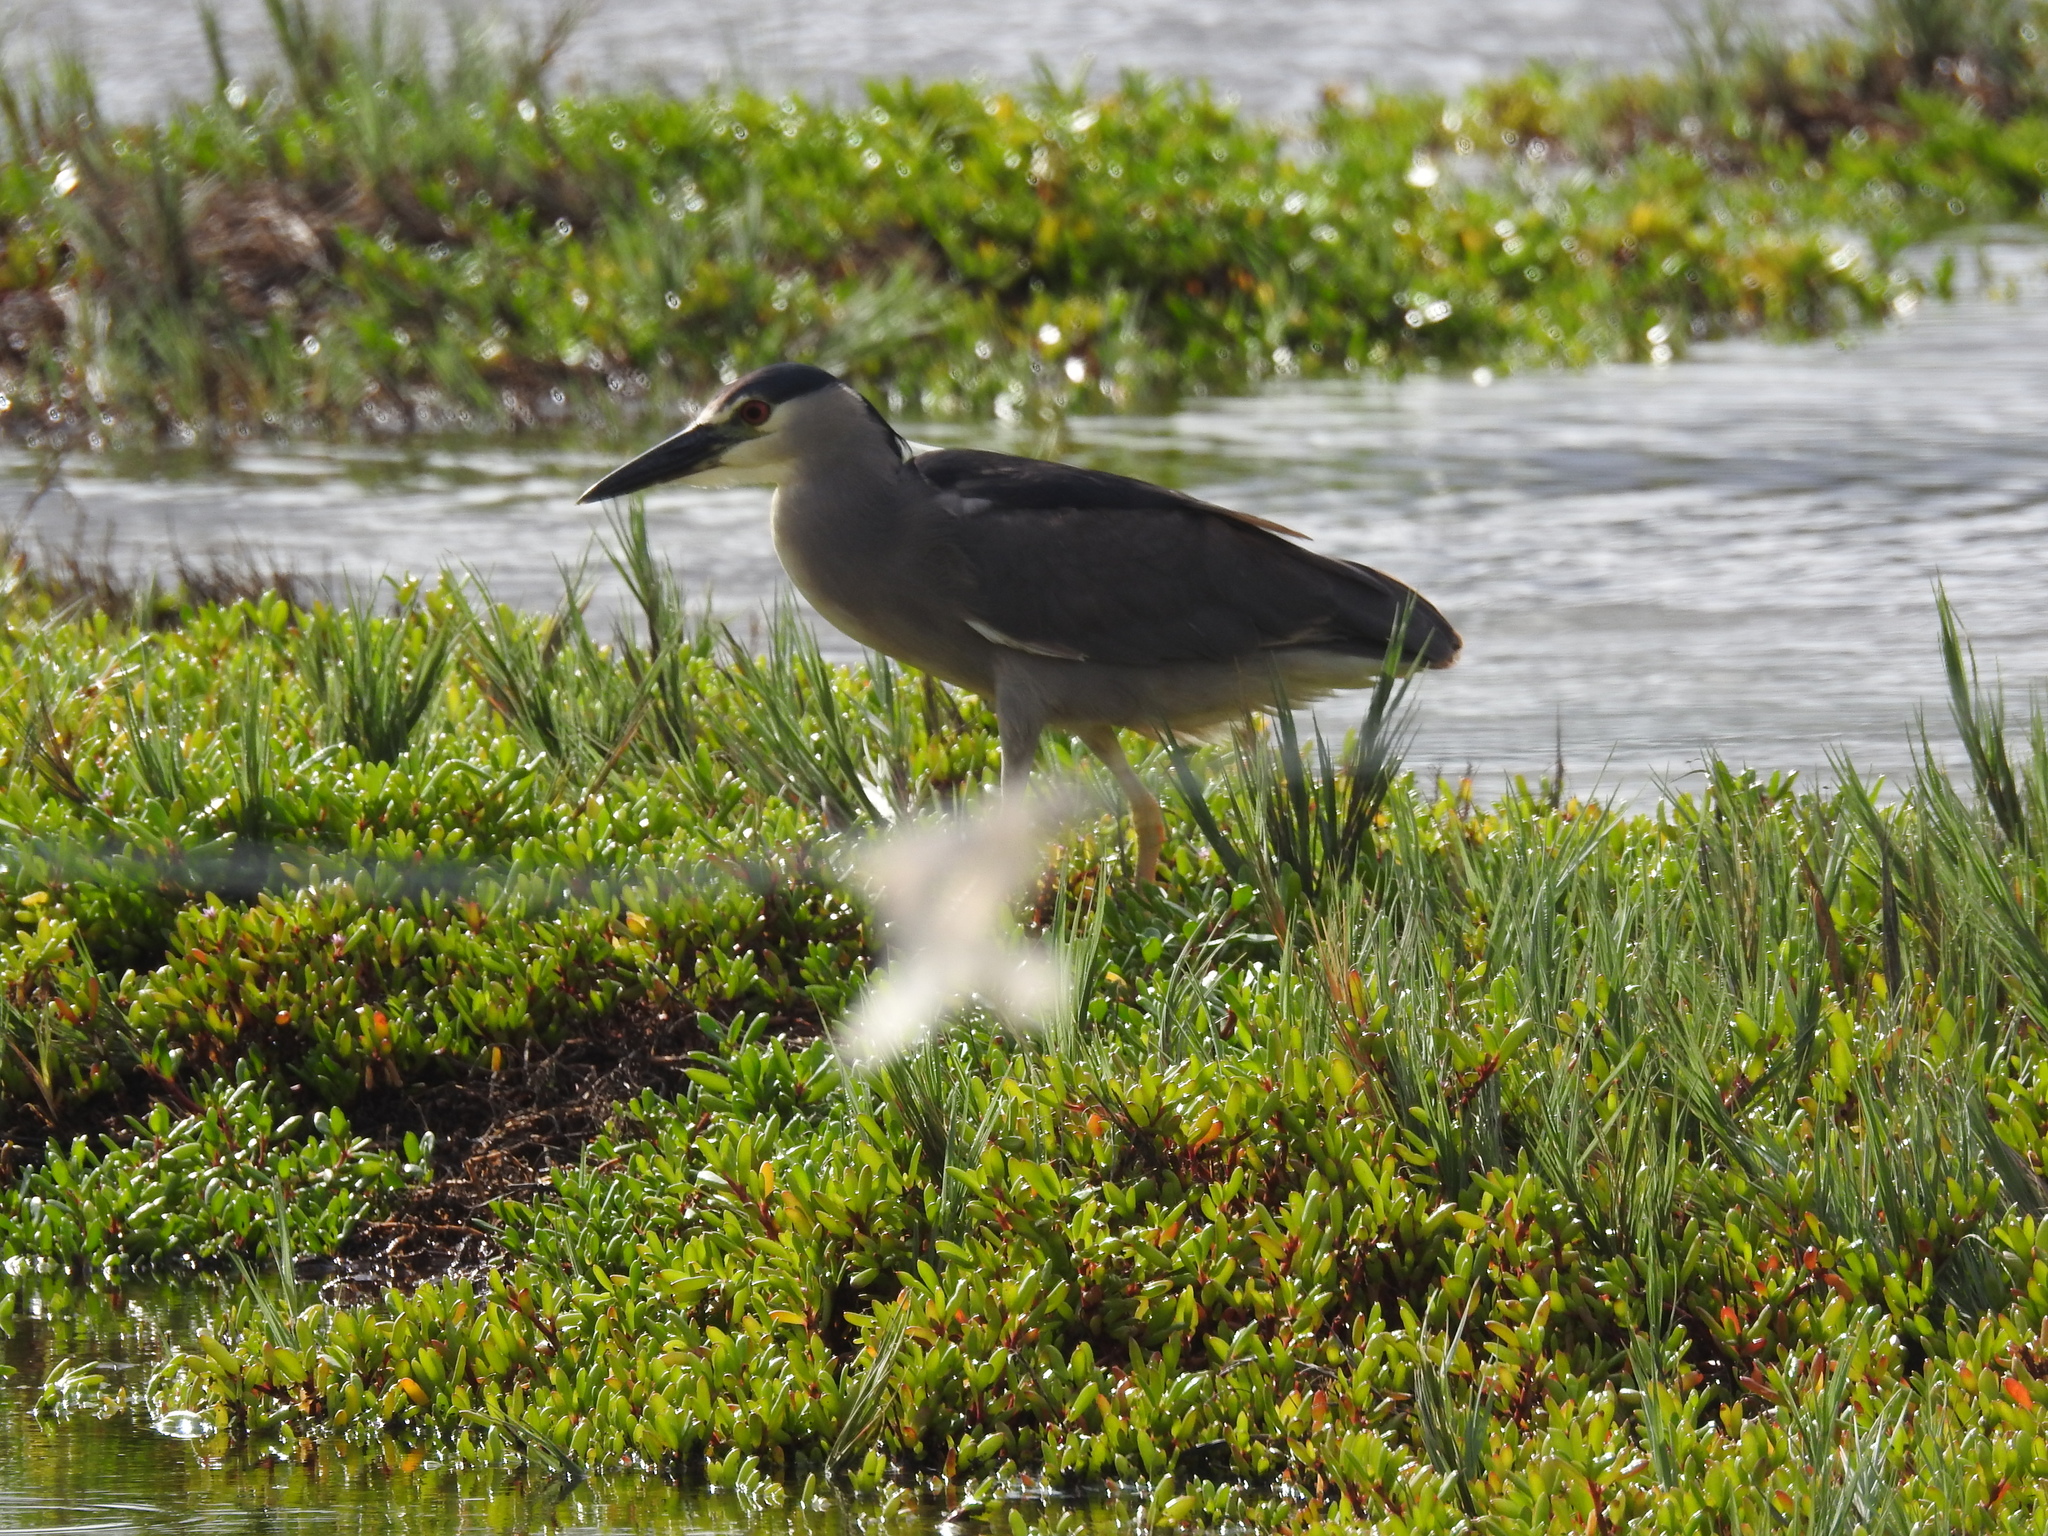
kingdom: Animalia
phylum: Chordata
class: Aves
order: Pelecaniformes
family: Ardeidae
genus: Nycticorax
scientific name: Nycticorax nycticorax
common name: Black-crowned night heron
